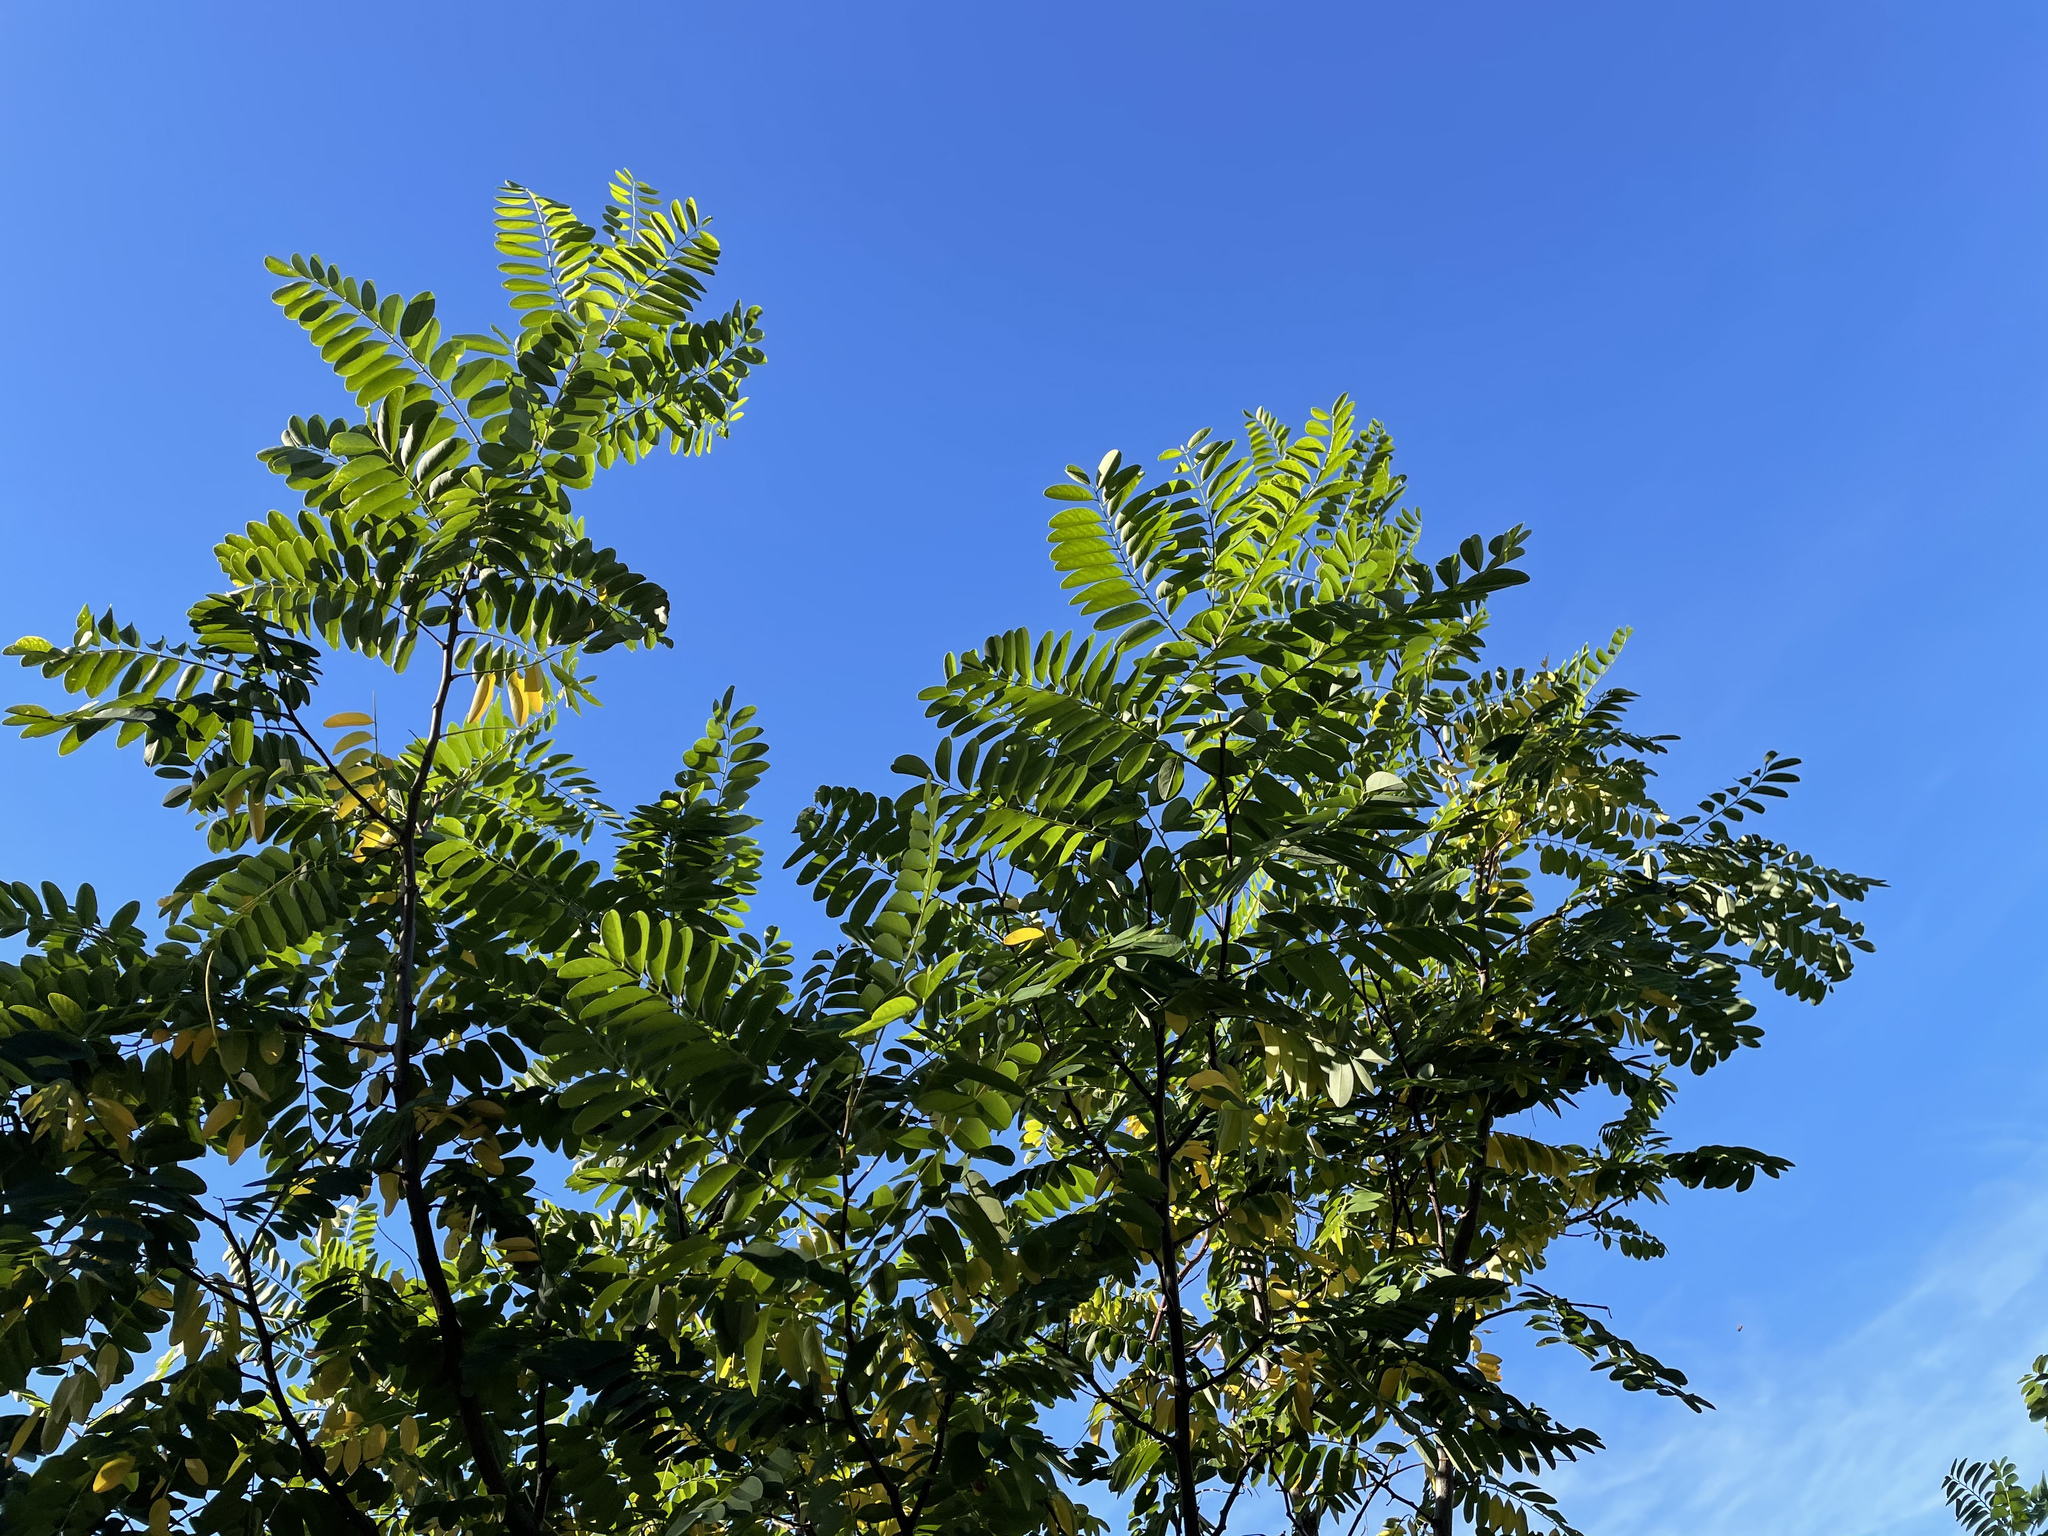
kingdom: Plantae
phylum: Tracheophyta
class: Magnoliopsida
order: Fabales
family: Fabaceae
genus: Robinia
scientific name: Robinia pseudoacacia
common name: Black locust
